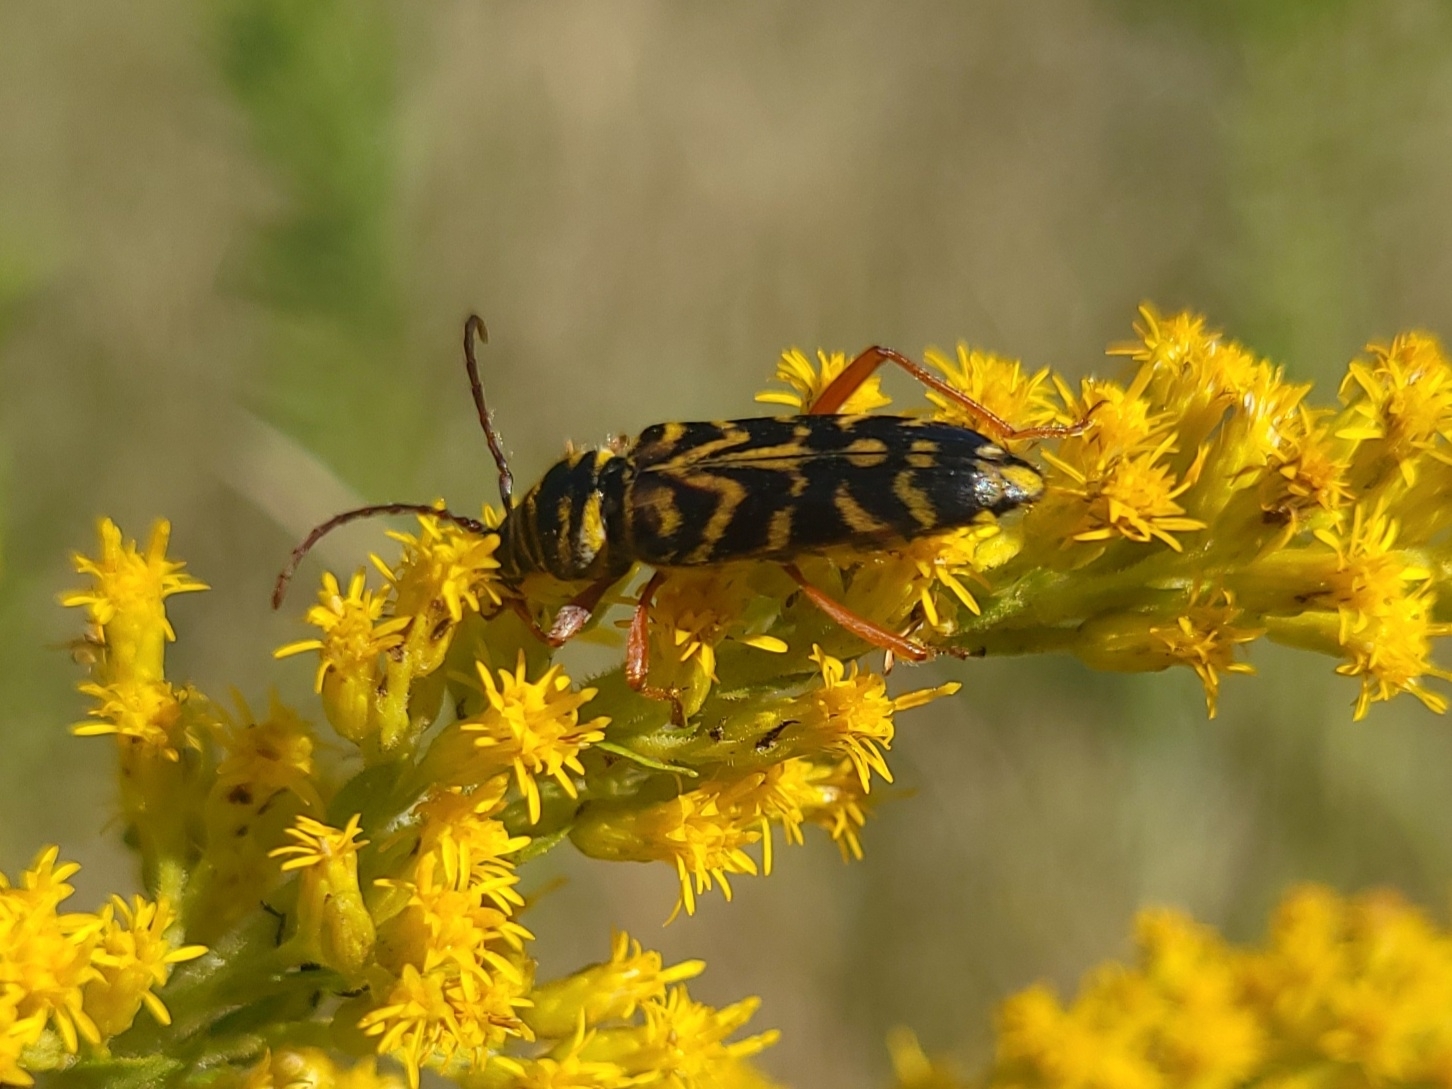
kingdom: Animalia
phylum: Arthropoda
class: Insecta
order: Coleoptera
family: Cerambycidae
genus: Megacyllene
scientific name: Megacyllene robiniae
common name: Locust borer
